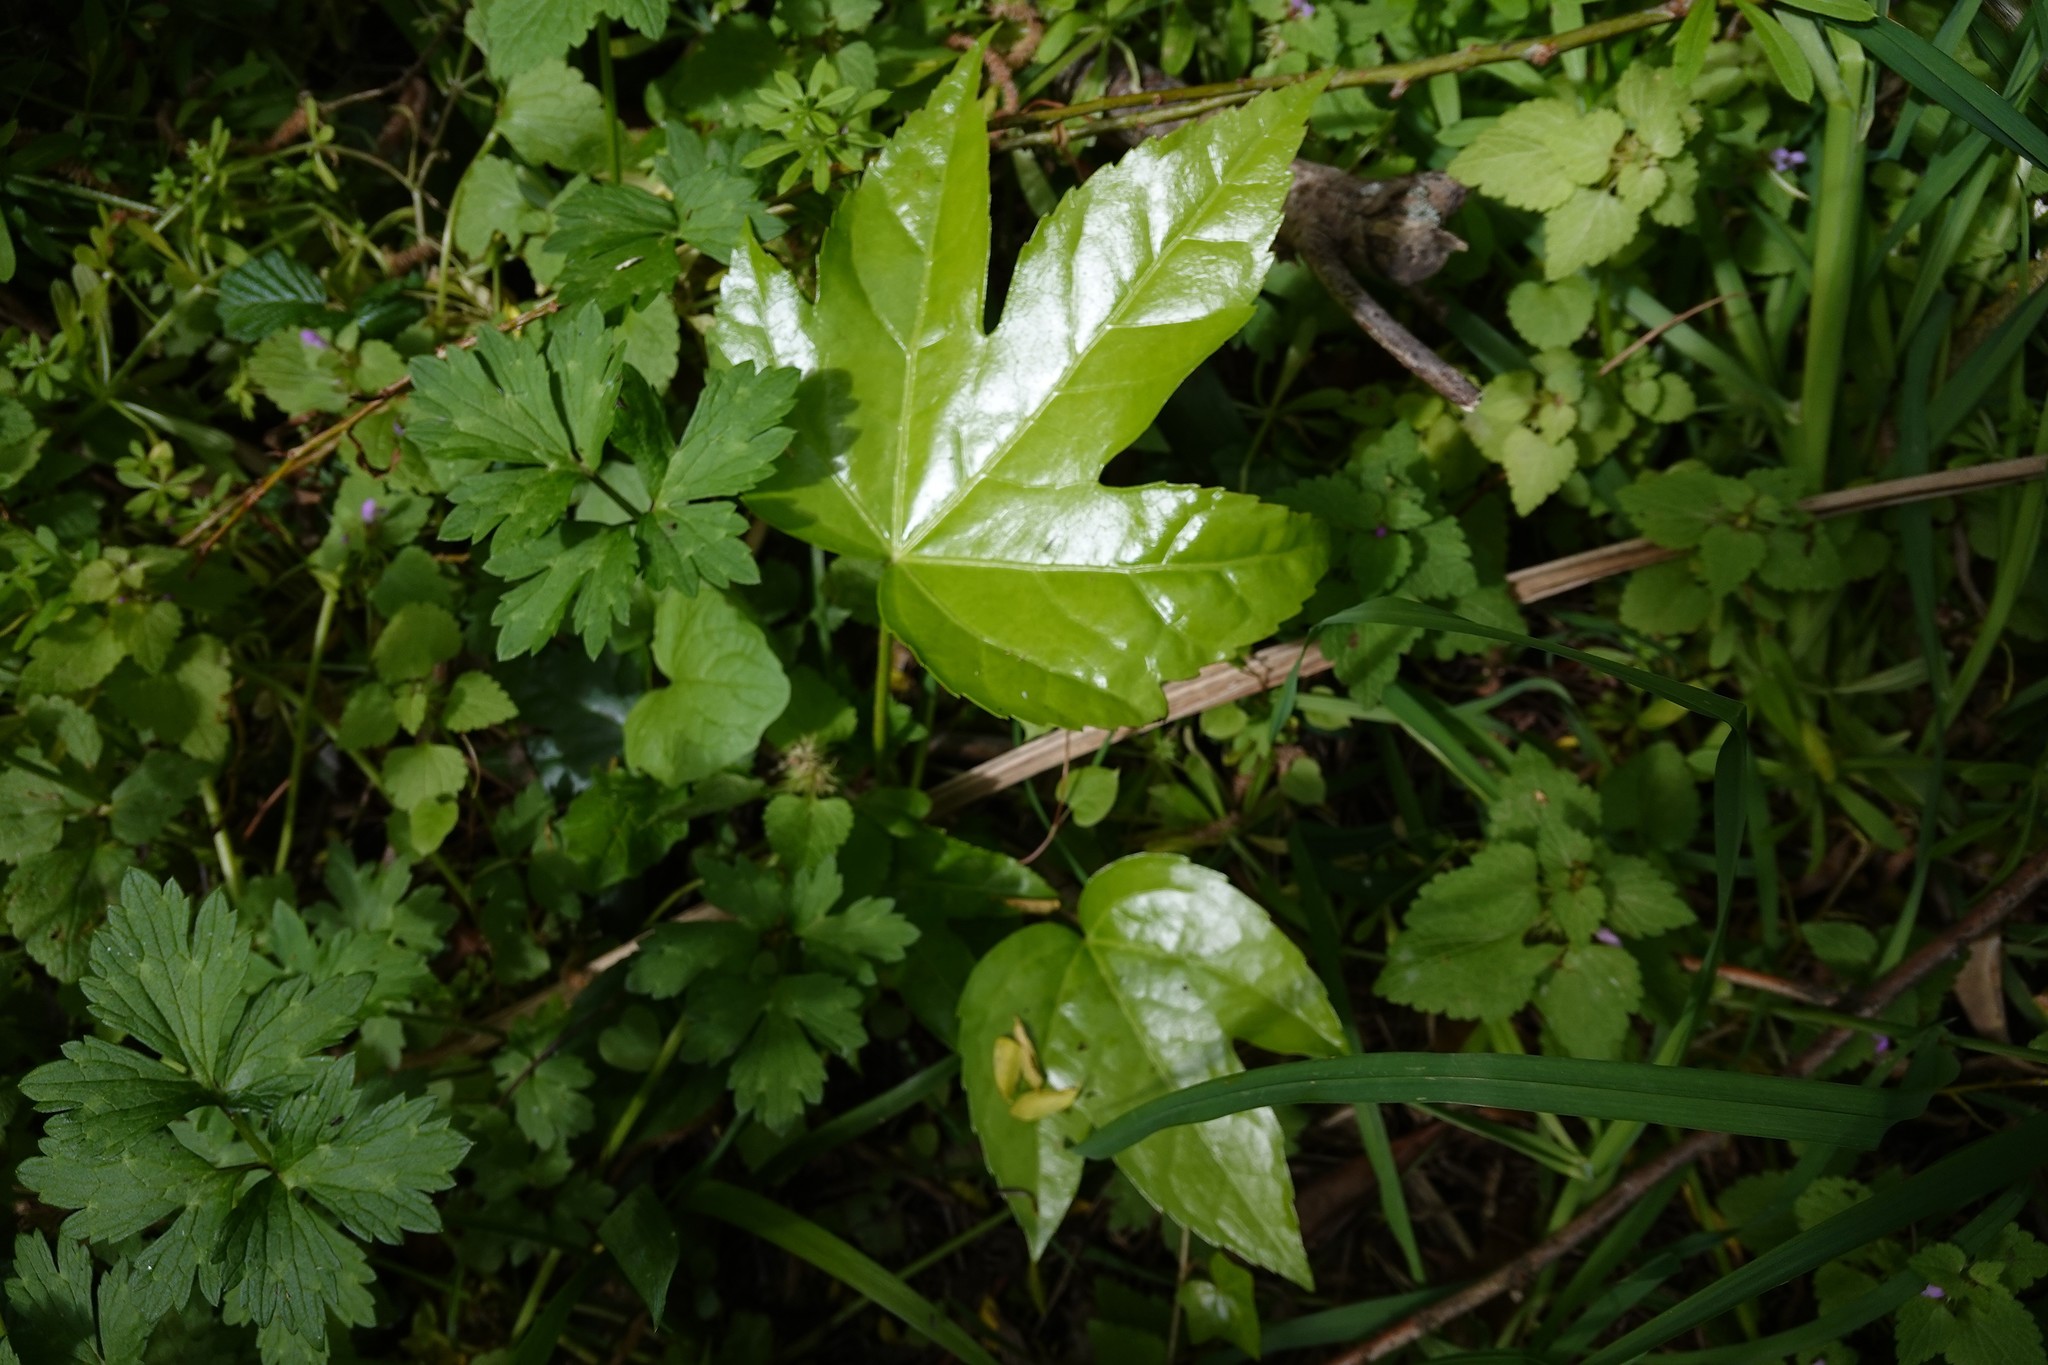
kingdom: Plantae
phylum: Tracheophyta
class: Magnoliopsida
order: Apiales
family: Araliaceae
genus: Fatsia
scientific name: Fatsia japonica
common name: Fatsia
